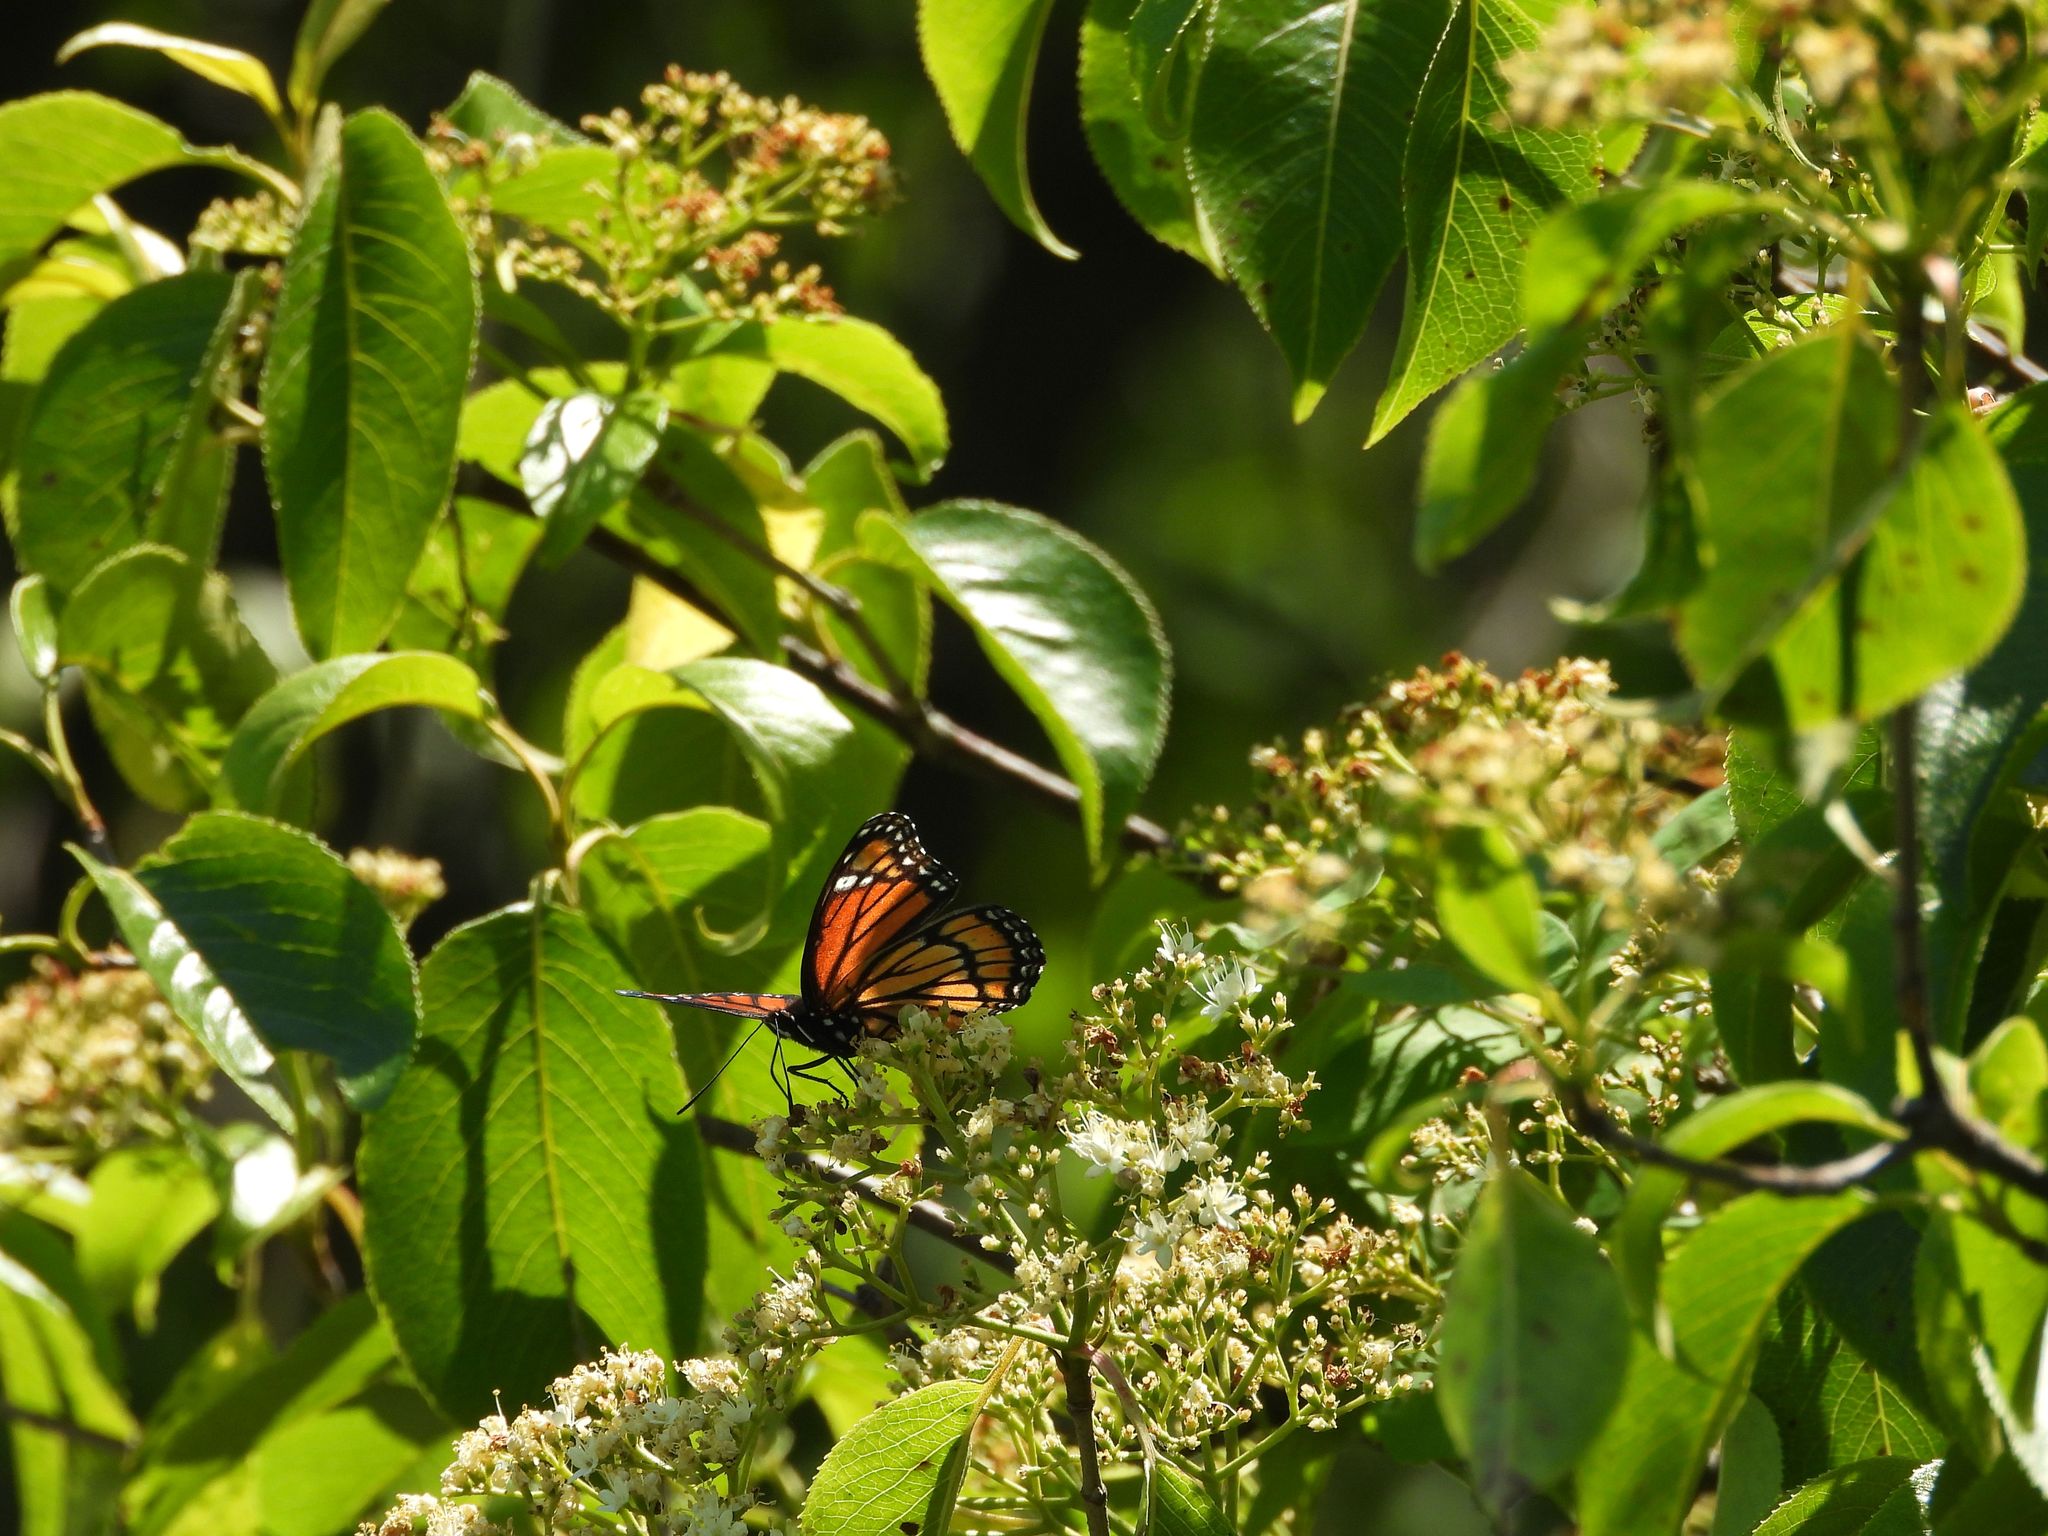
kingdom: Animalia
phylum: Arthropoda
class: Insecta
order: Lepidoptera
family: Nymphalidae
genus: Limenitis
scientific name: Limenitis archippus
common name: Viceroy
